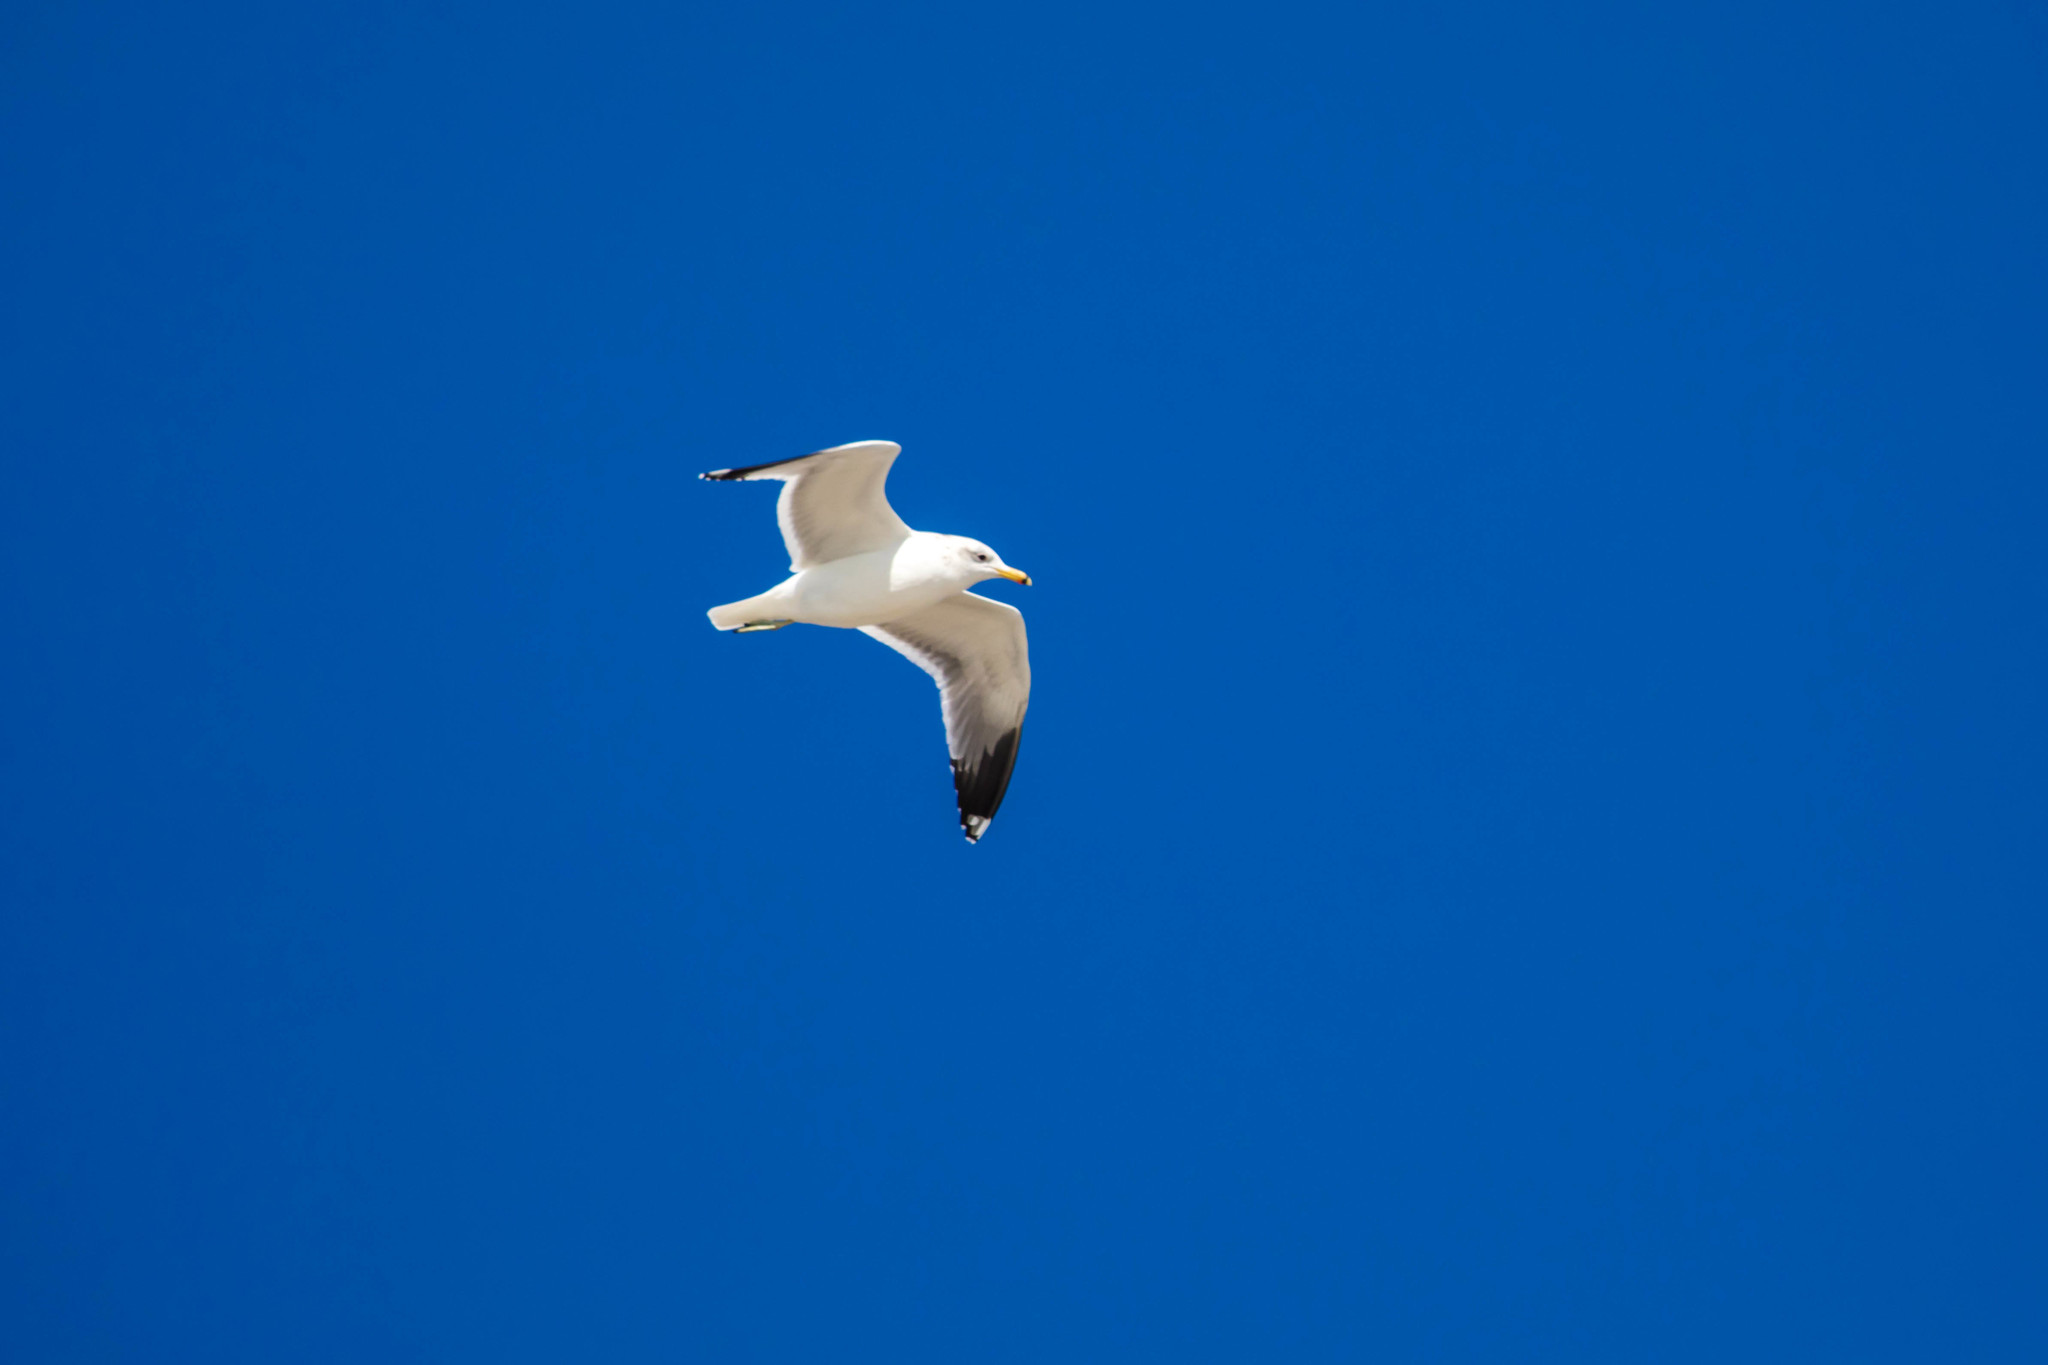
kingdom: Animalia
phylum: Chordata
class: Aves
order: Charadriiformes
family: Laridae
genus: Larus
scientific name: Larus californicus
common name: California gull
